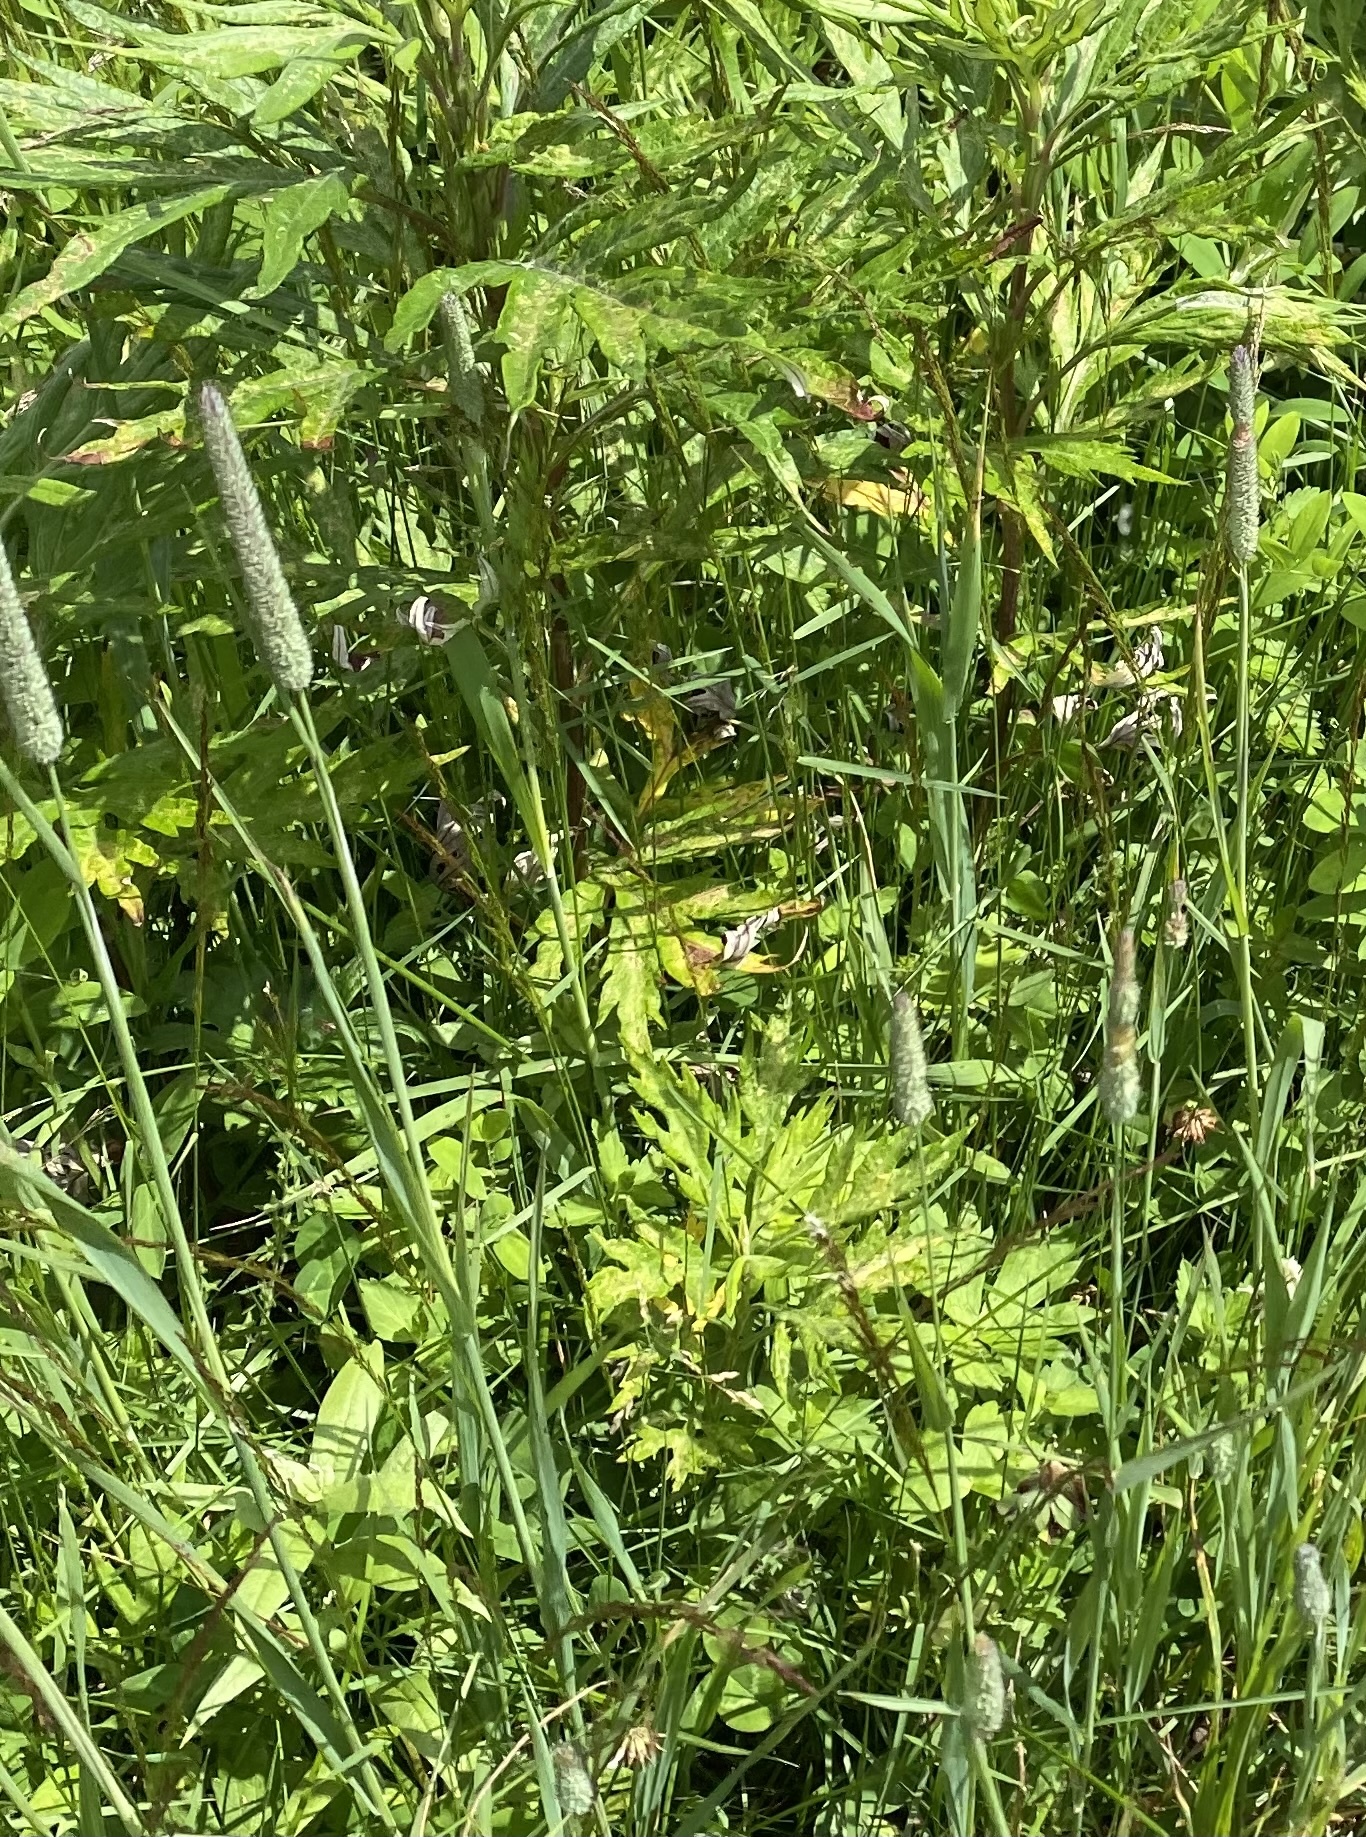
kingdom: Plantae
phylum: Tracheophyta
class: Liliopsida
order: Poales
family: Poaceae
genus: Phleum
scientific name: Phleum pratense
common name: Timothy grass
